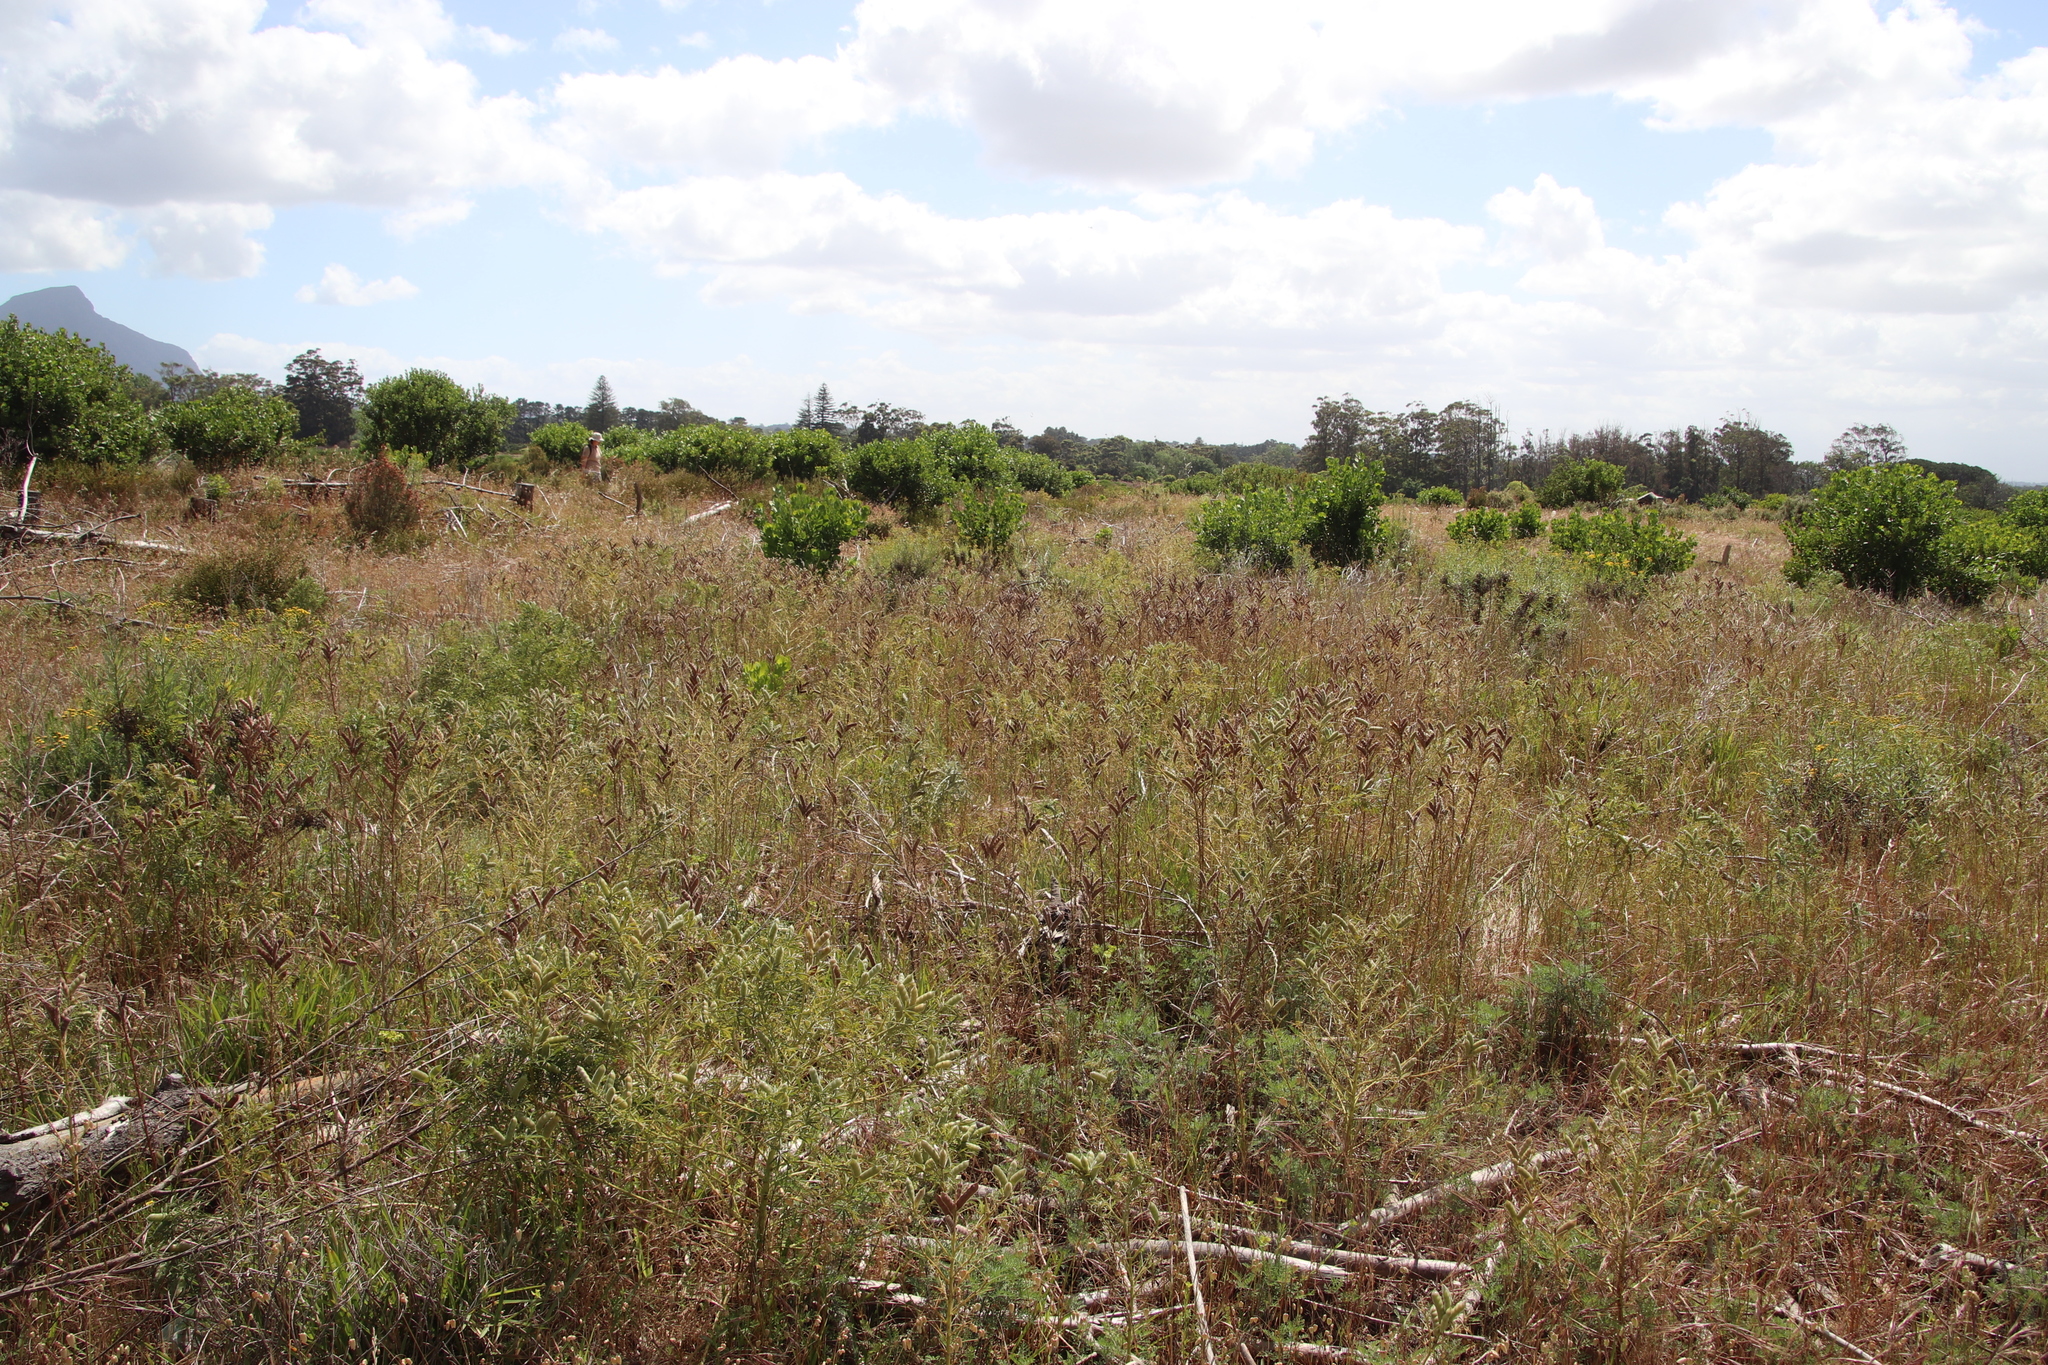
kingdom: Plantae
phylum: Tracheophyta
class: Magnoliopsida
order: Fabales
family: Fabaceae
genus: Lupinus
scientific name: Lupinus angustifolius
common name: Narrow-leaved lupin
